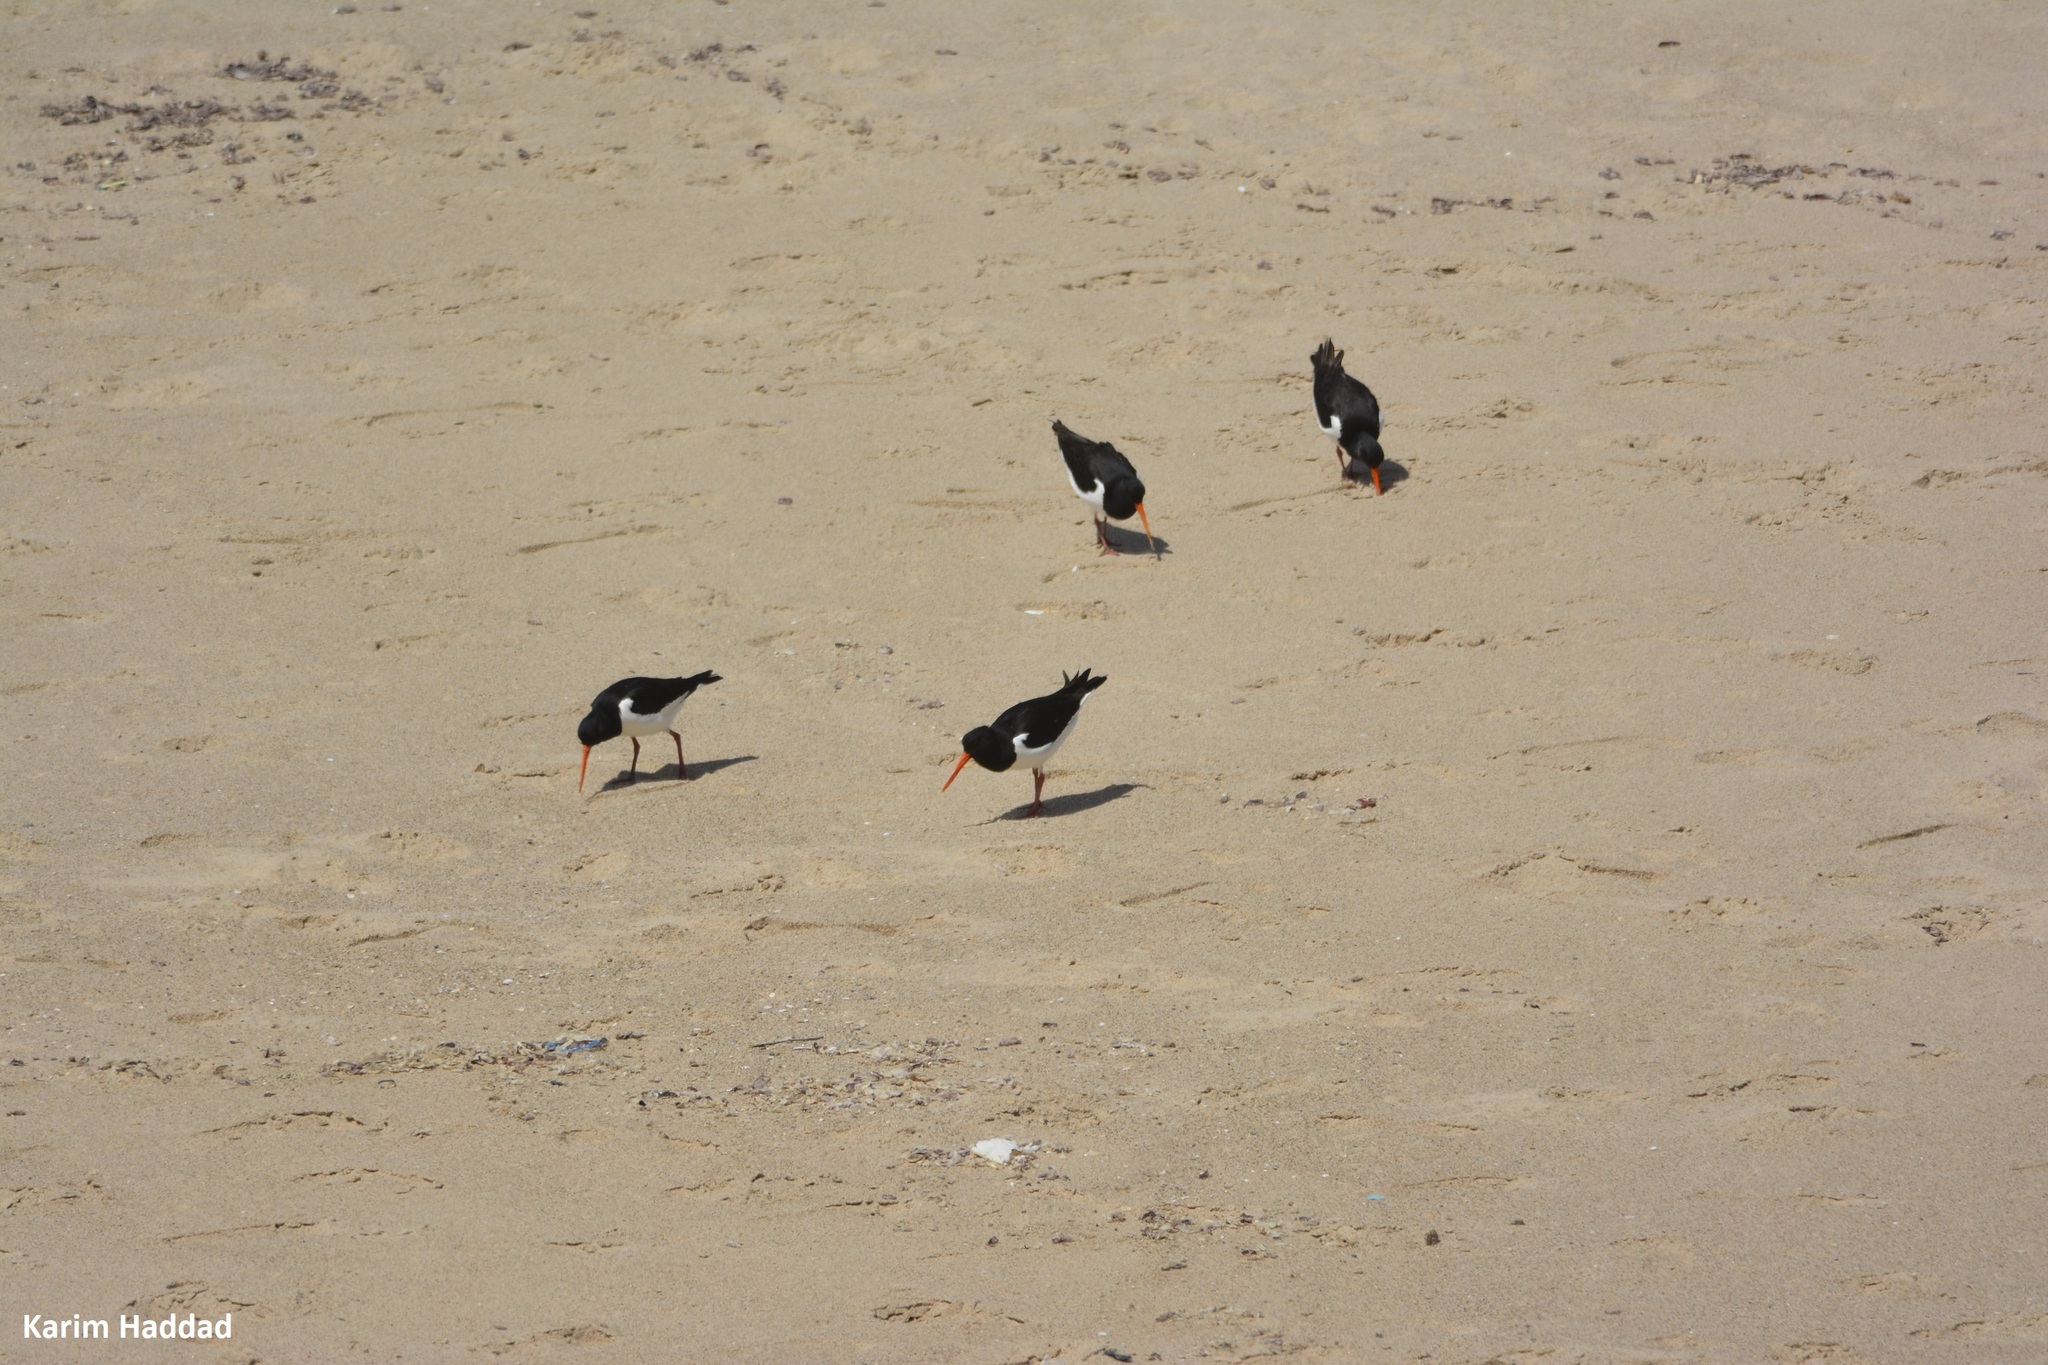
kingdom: Animalia
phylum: Chordata
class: Aves
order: Charadriiformes
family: Haematopodidae
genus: Haematopus
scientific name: Haematopus ostralegus
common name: Eurasian oystercatcher
